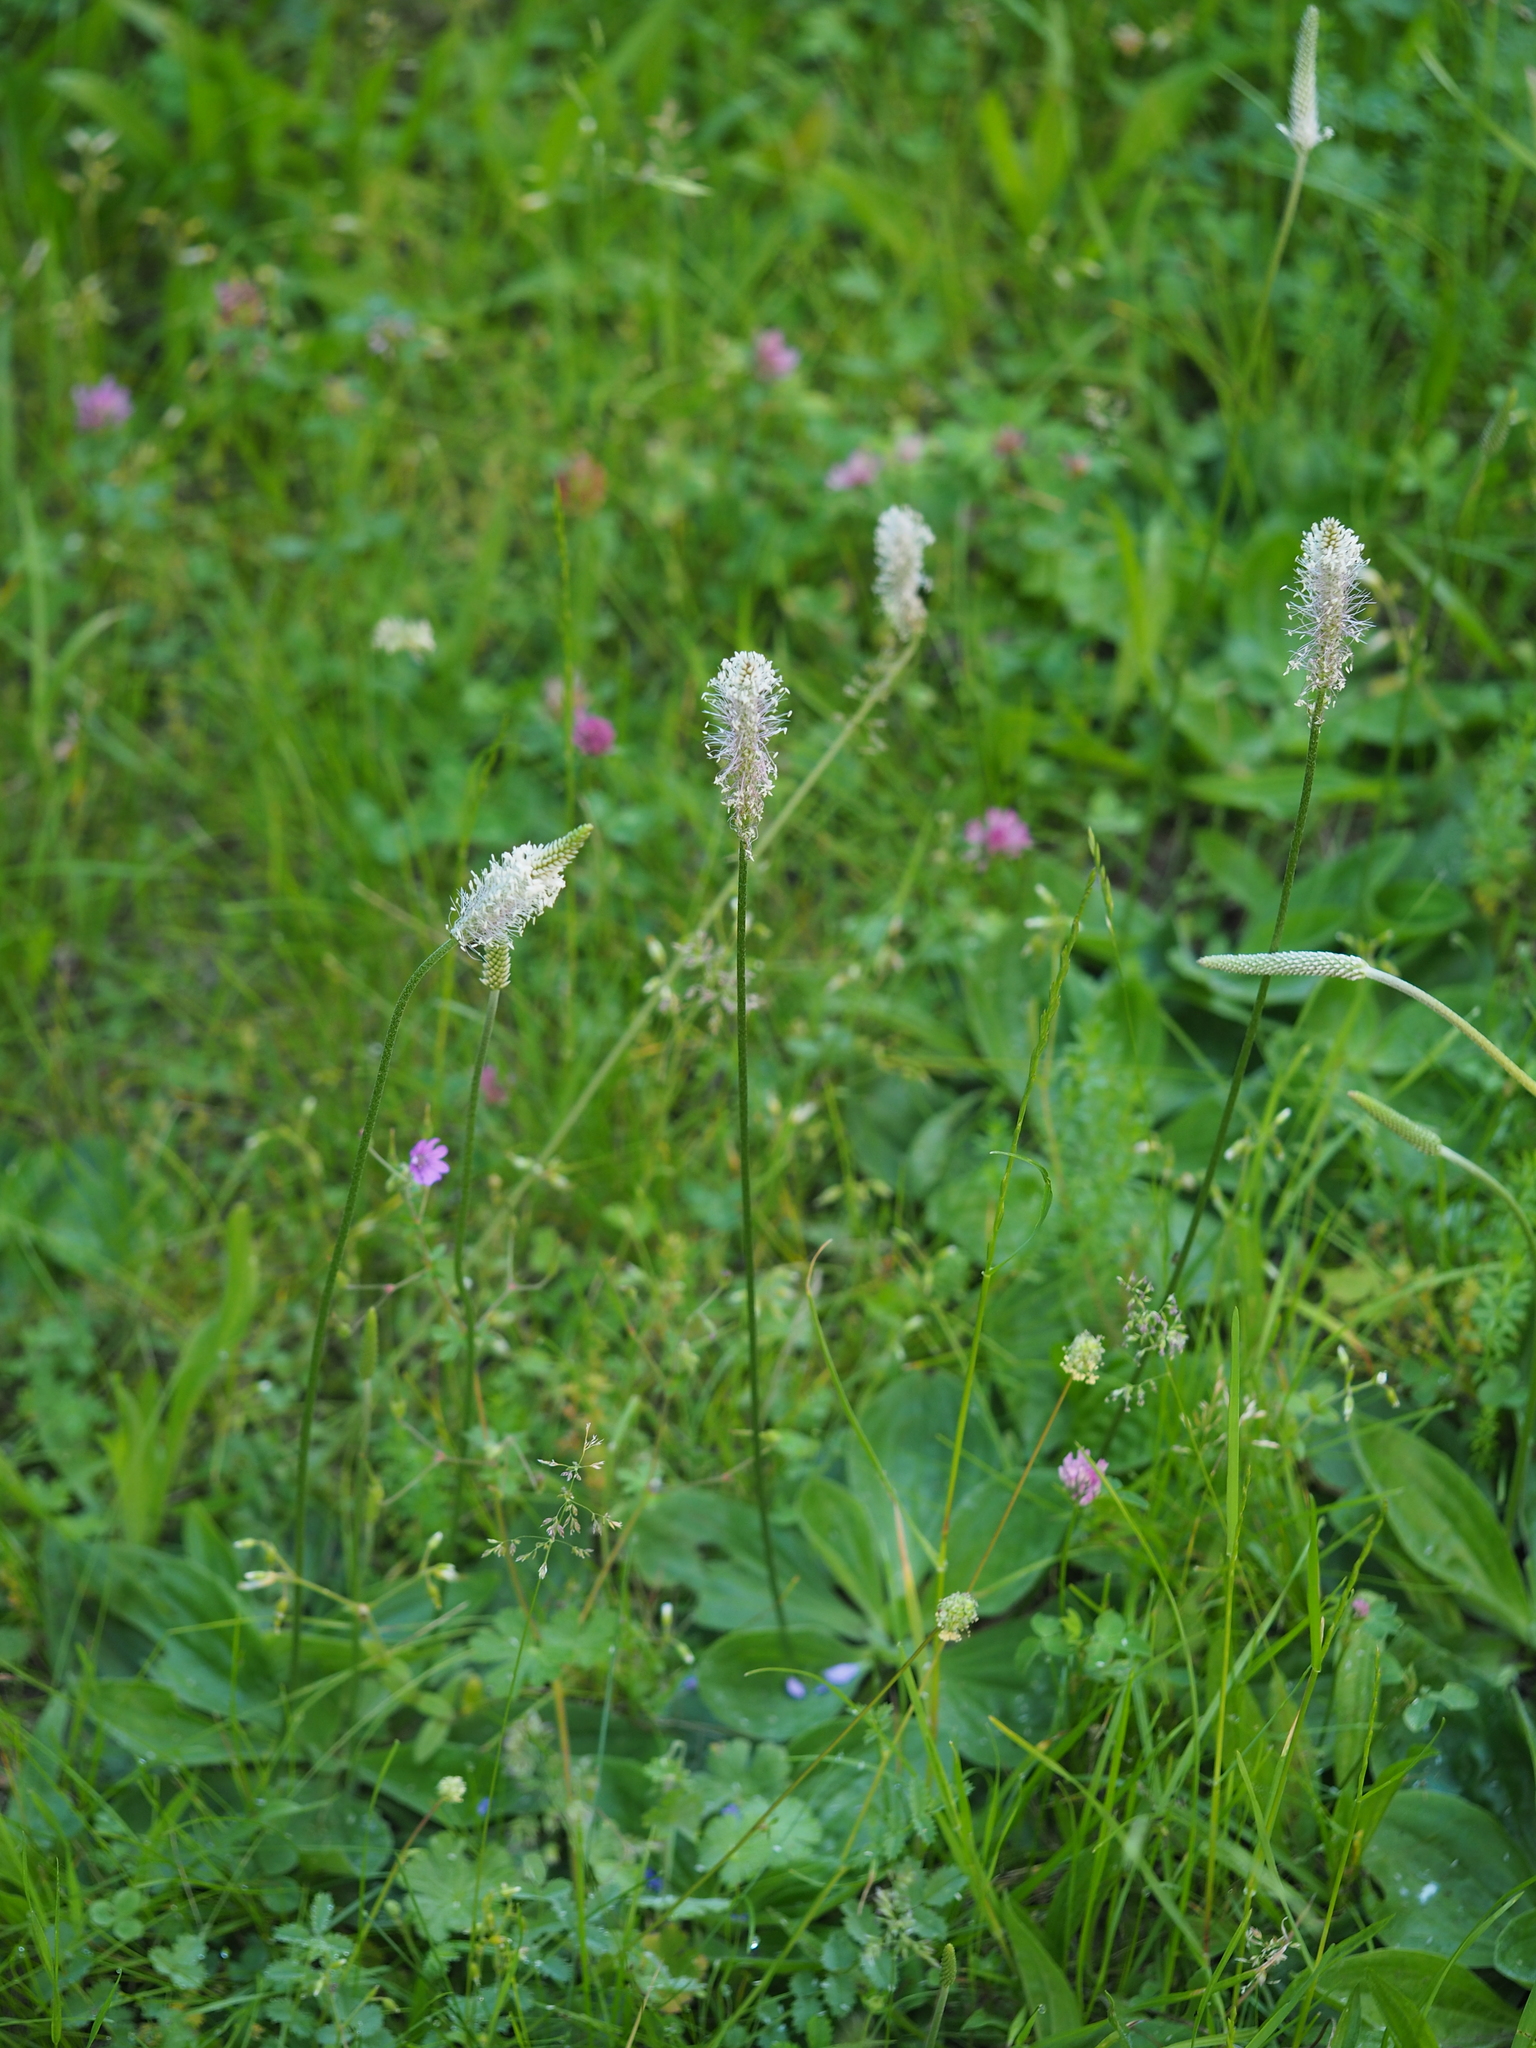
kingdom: Plantae
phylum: Tracheophyta
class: Magnoliopsida
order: Lamiales
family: Plantaginaceae
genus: Plantago
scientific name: Plantago media
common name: Hoary plantain
